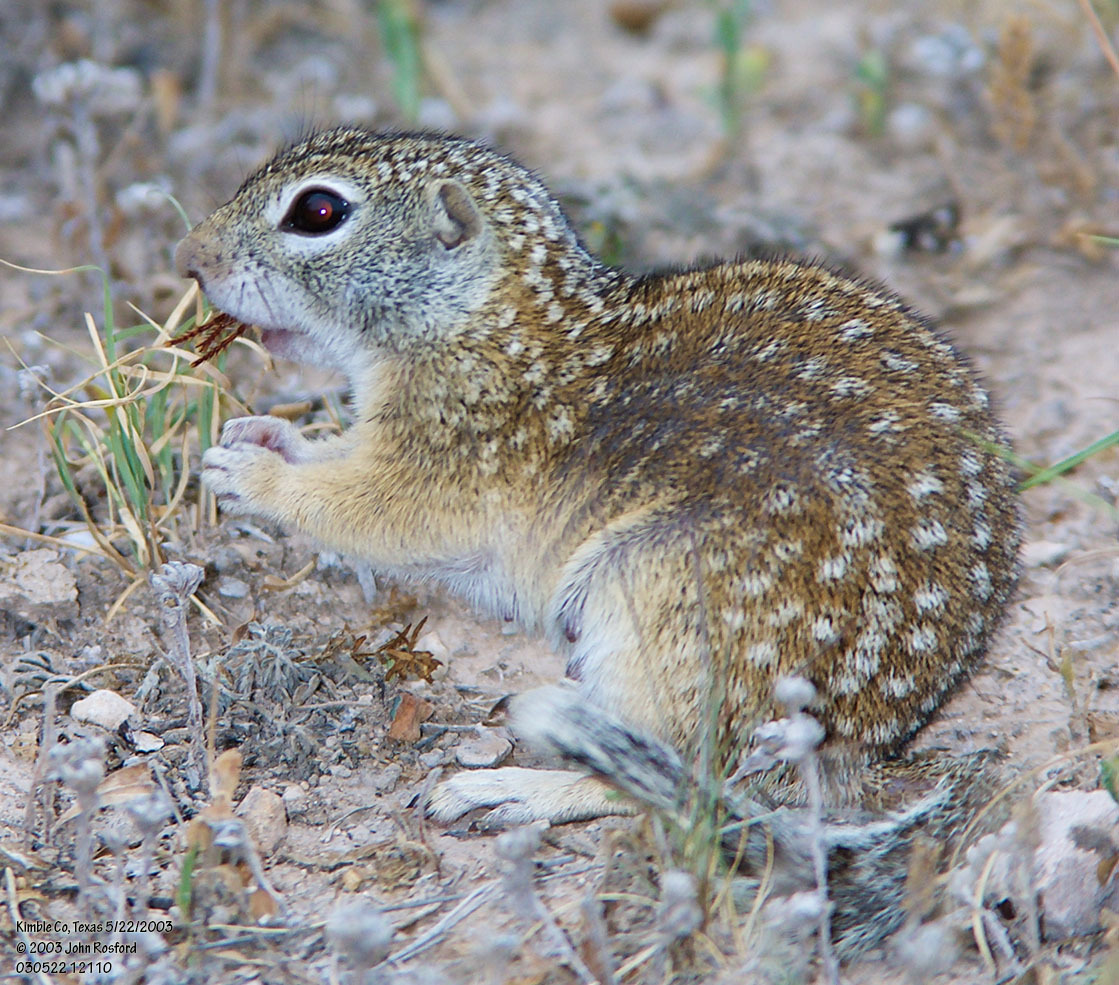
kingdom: Animalia
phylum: Chordata
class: Mammalia
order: Rodentia
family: Sciuridae
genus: Ictidomys
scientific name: Ictidomys parvidens
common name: Rio grande ground squirrel
